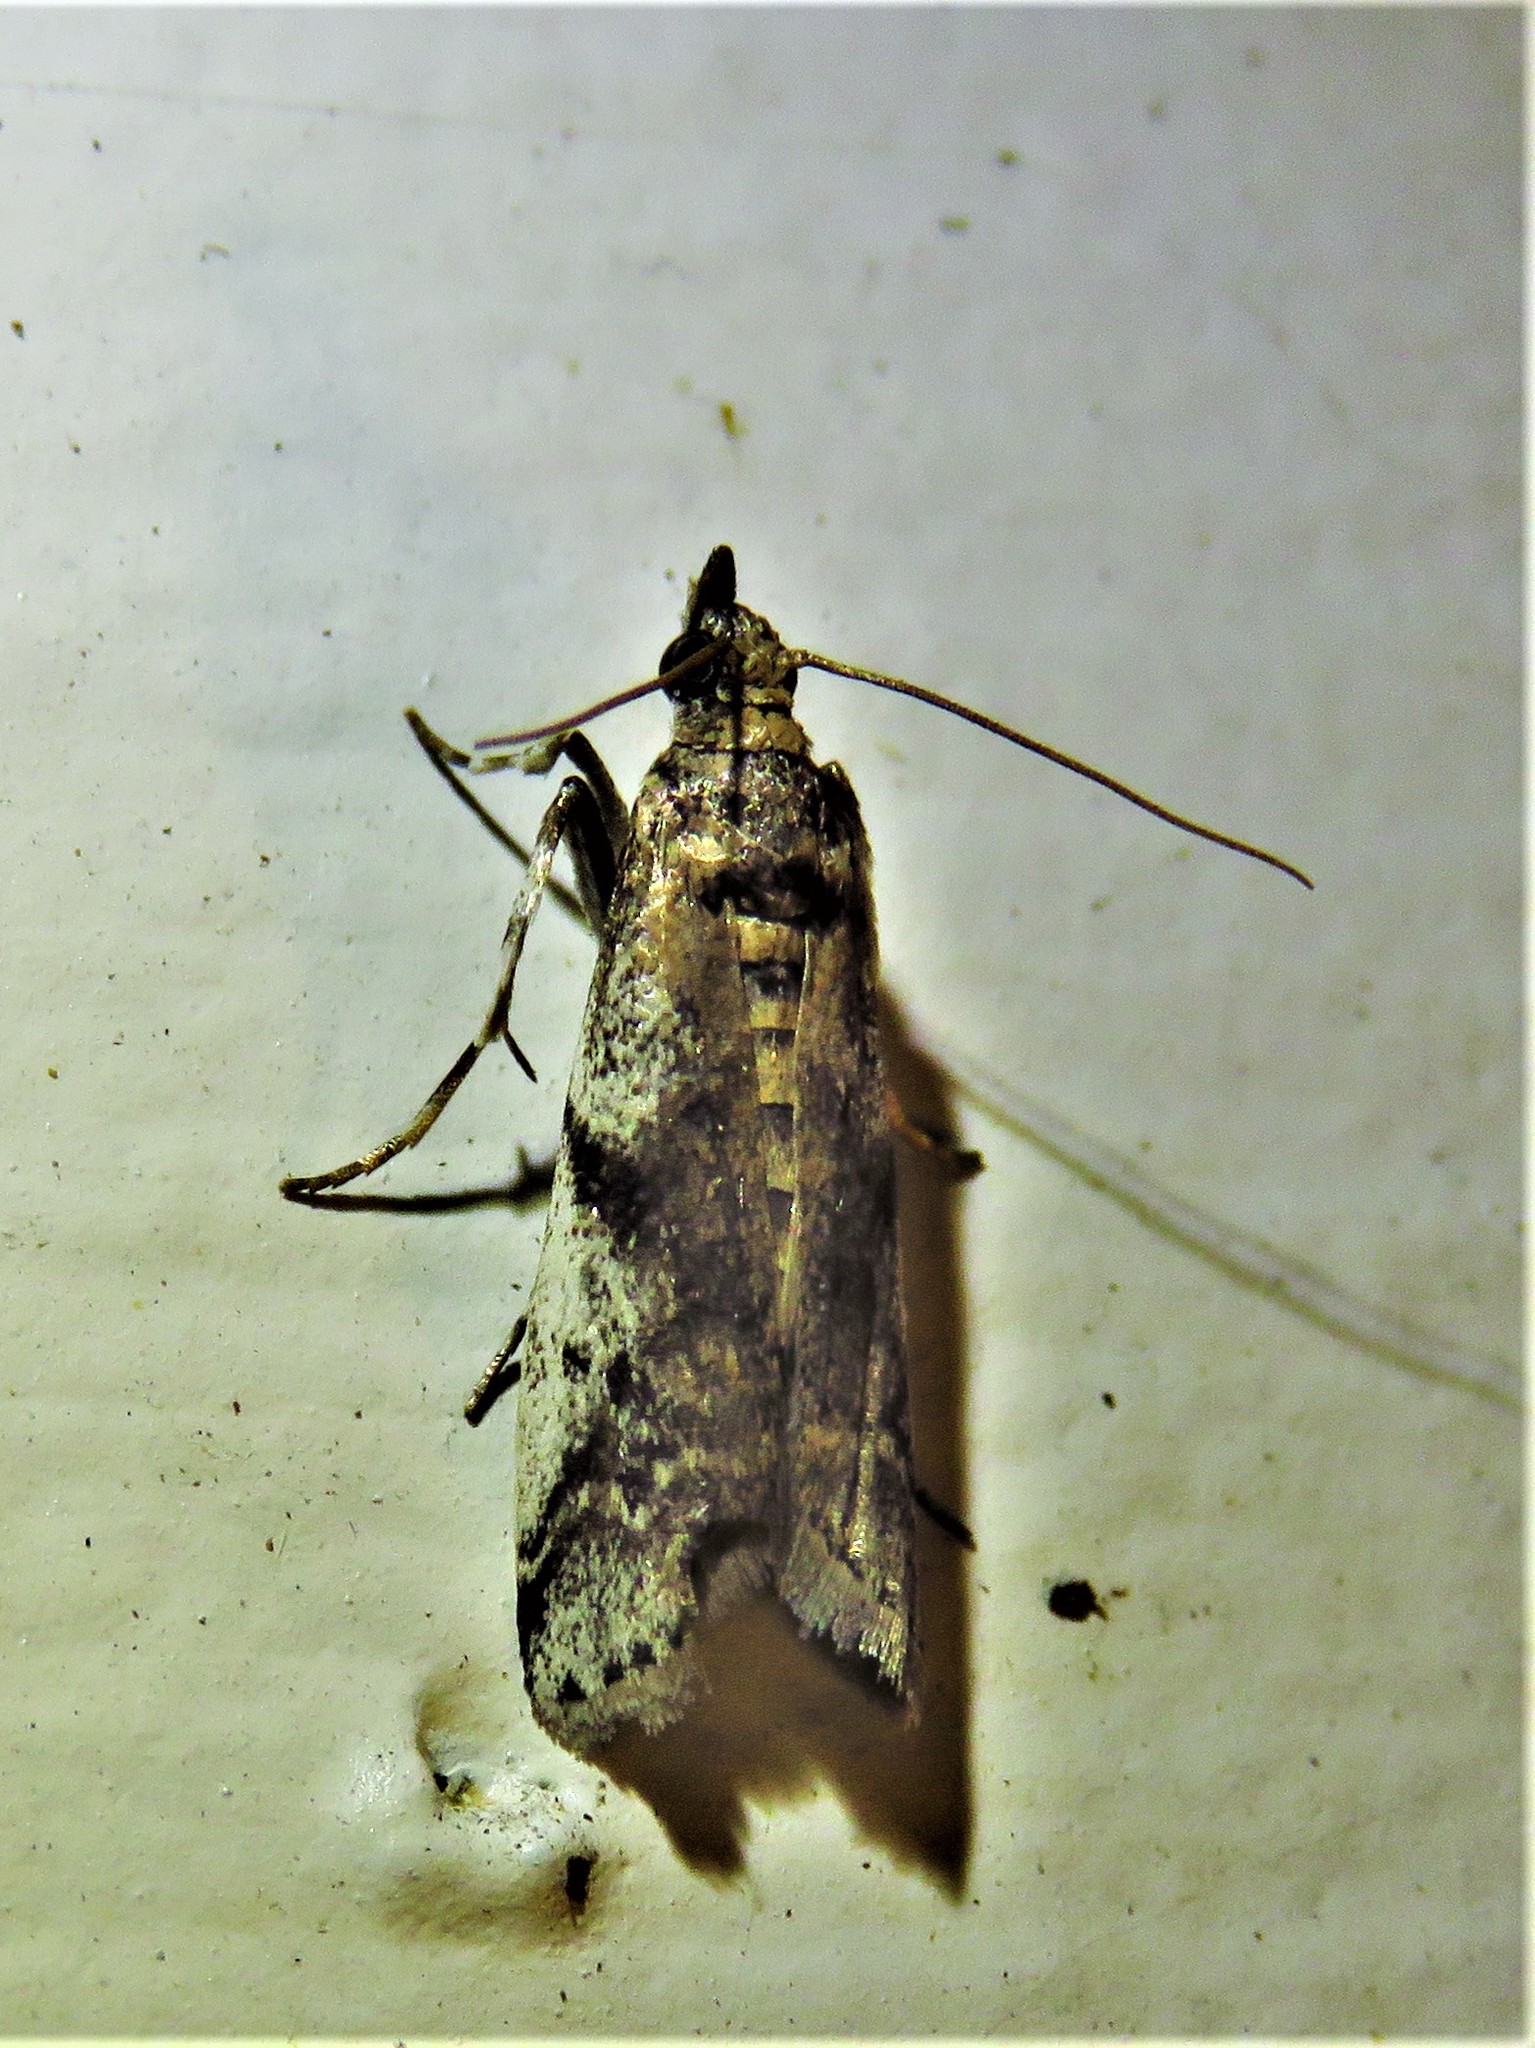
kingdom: Animalia
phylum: Arthropoda
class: Insecta
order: Lepidoptera
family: Pyralidae
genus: Laetilia
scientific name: Laetilia coccidivora
